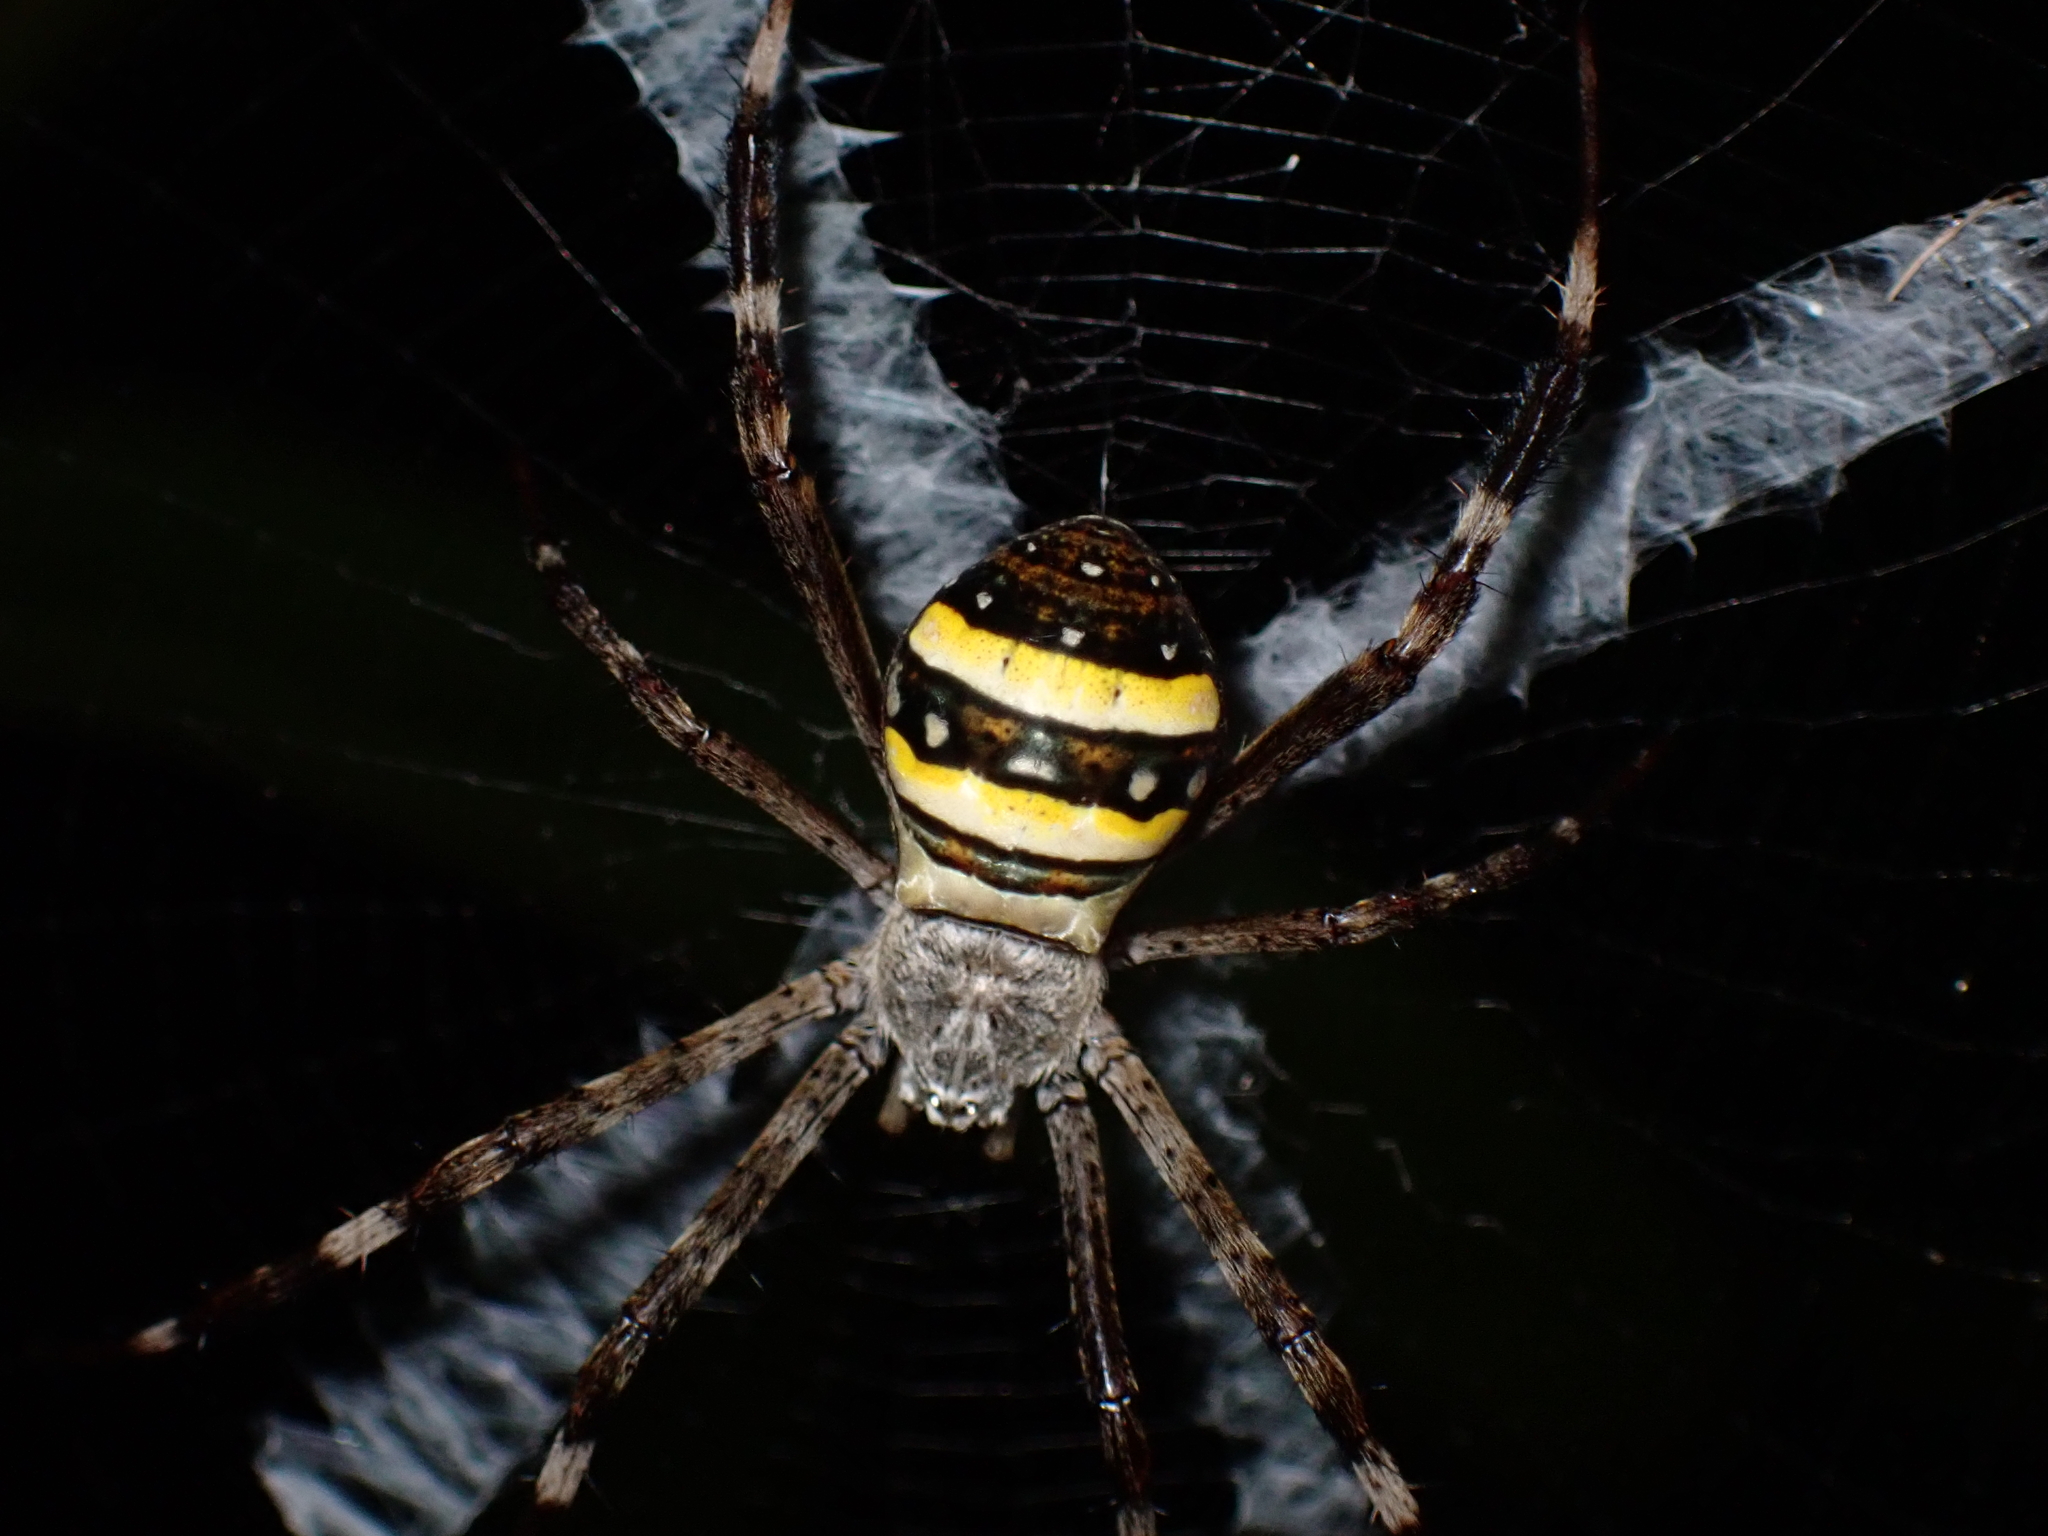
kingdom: Animalia
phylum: Arthropoda
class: Arachnida
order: Araneae
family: Araneidae
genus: Argiope
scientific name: Argiope caledonia
